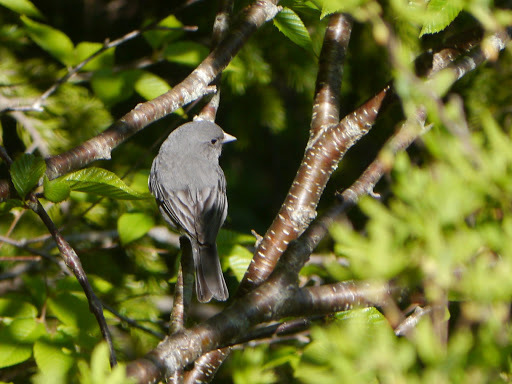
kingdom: Animalia
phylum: Chordata
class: Aves
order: Passeriformes
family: Passerellidae
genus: Junco
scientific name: Junco hyemalis
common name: Dark-eyed junco
